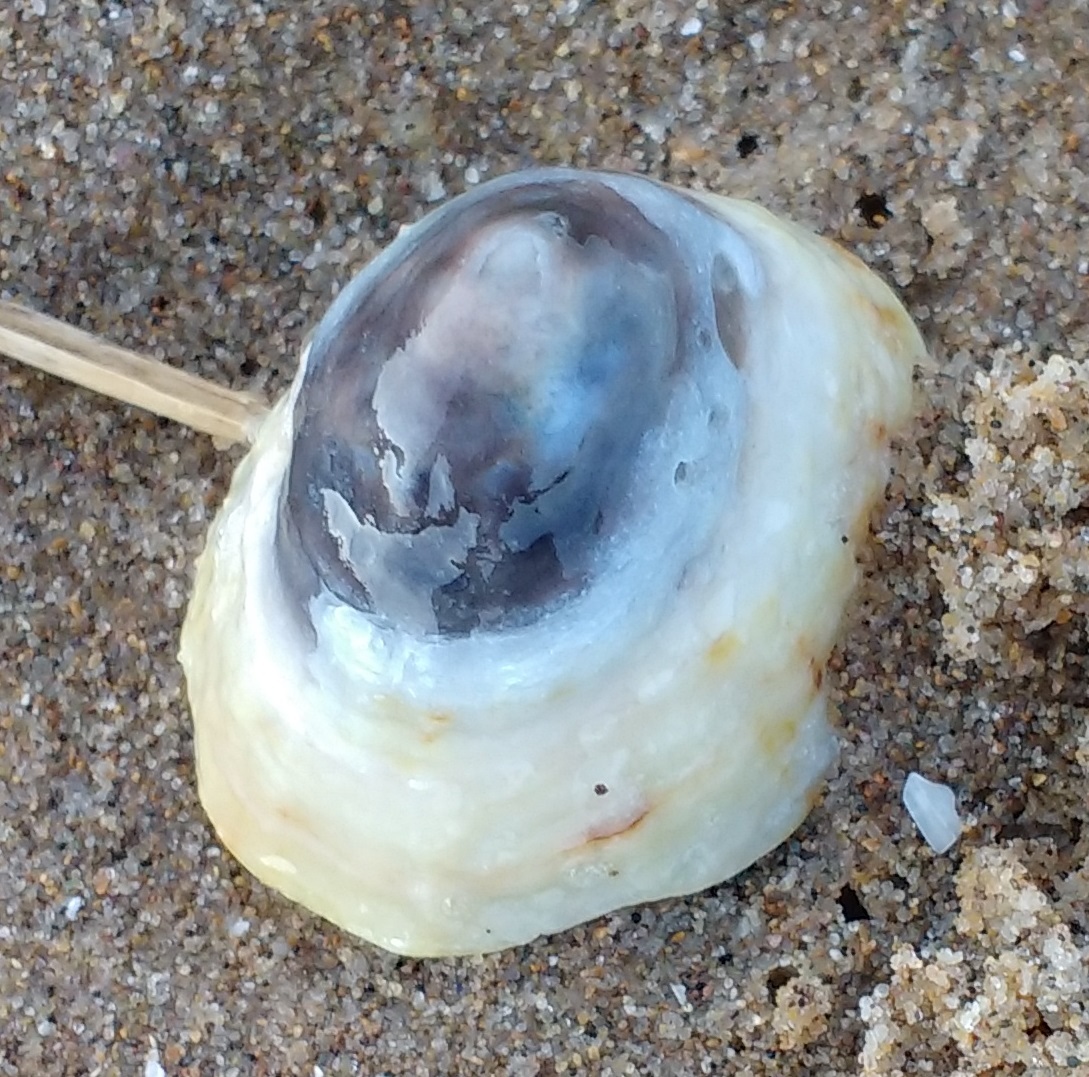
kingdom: Animalia
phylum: Mollusca
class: Gastropoda
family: Patellidae
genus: Patella
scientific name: Patella vulgata
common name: Common limpet
